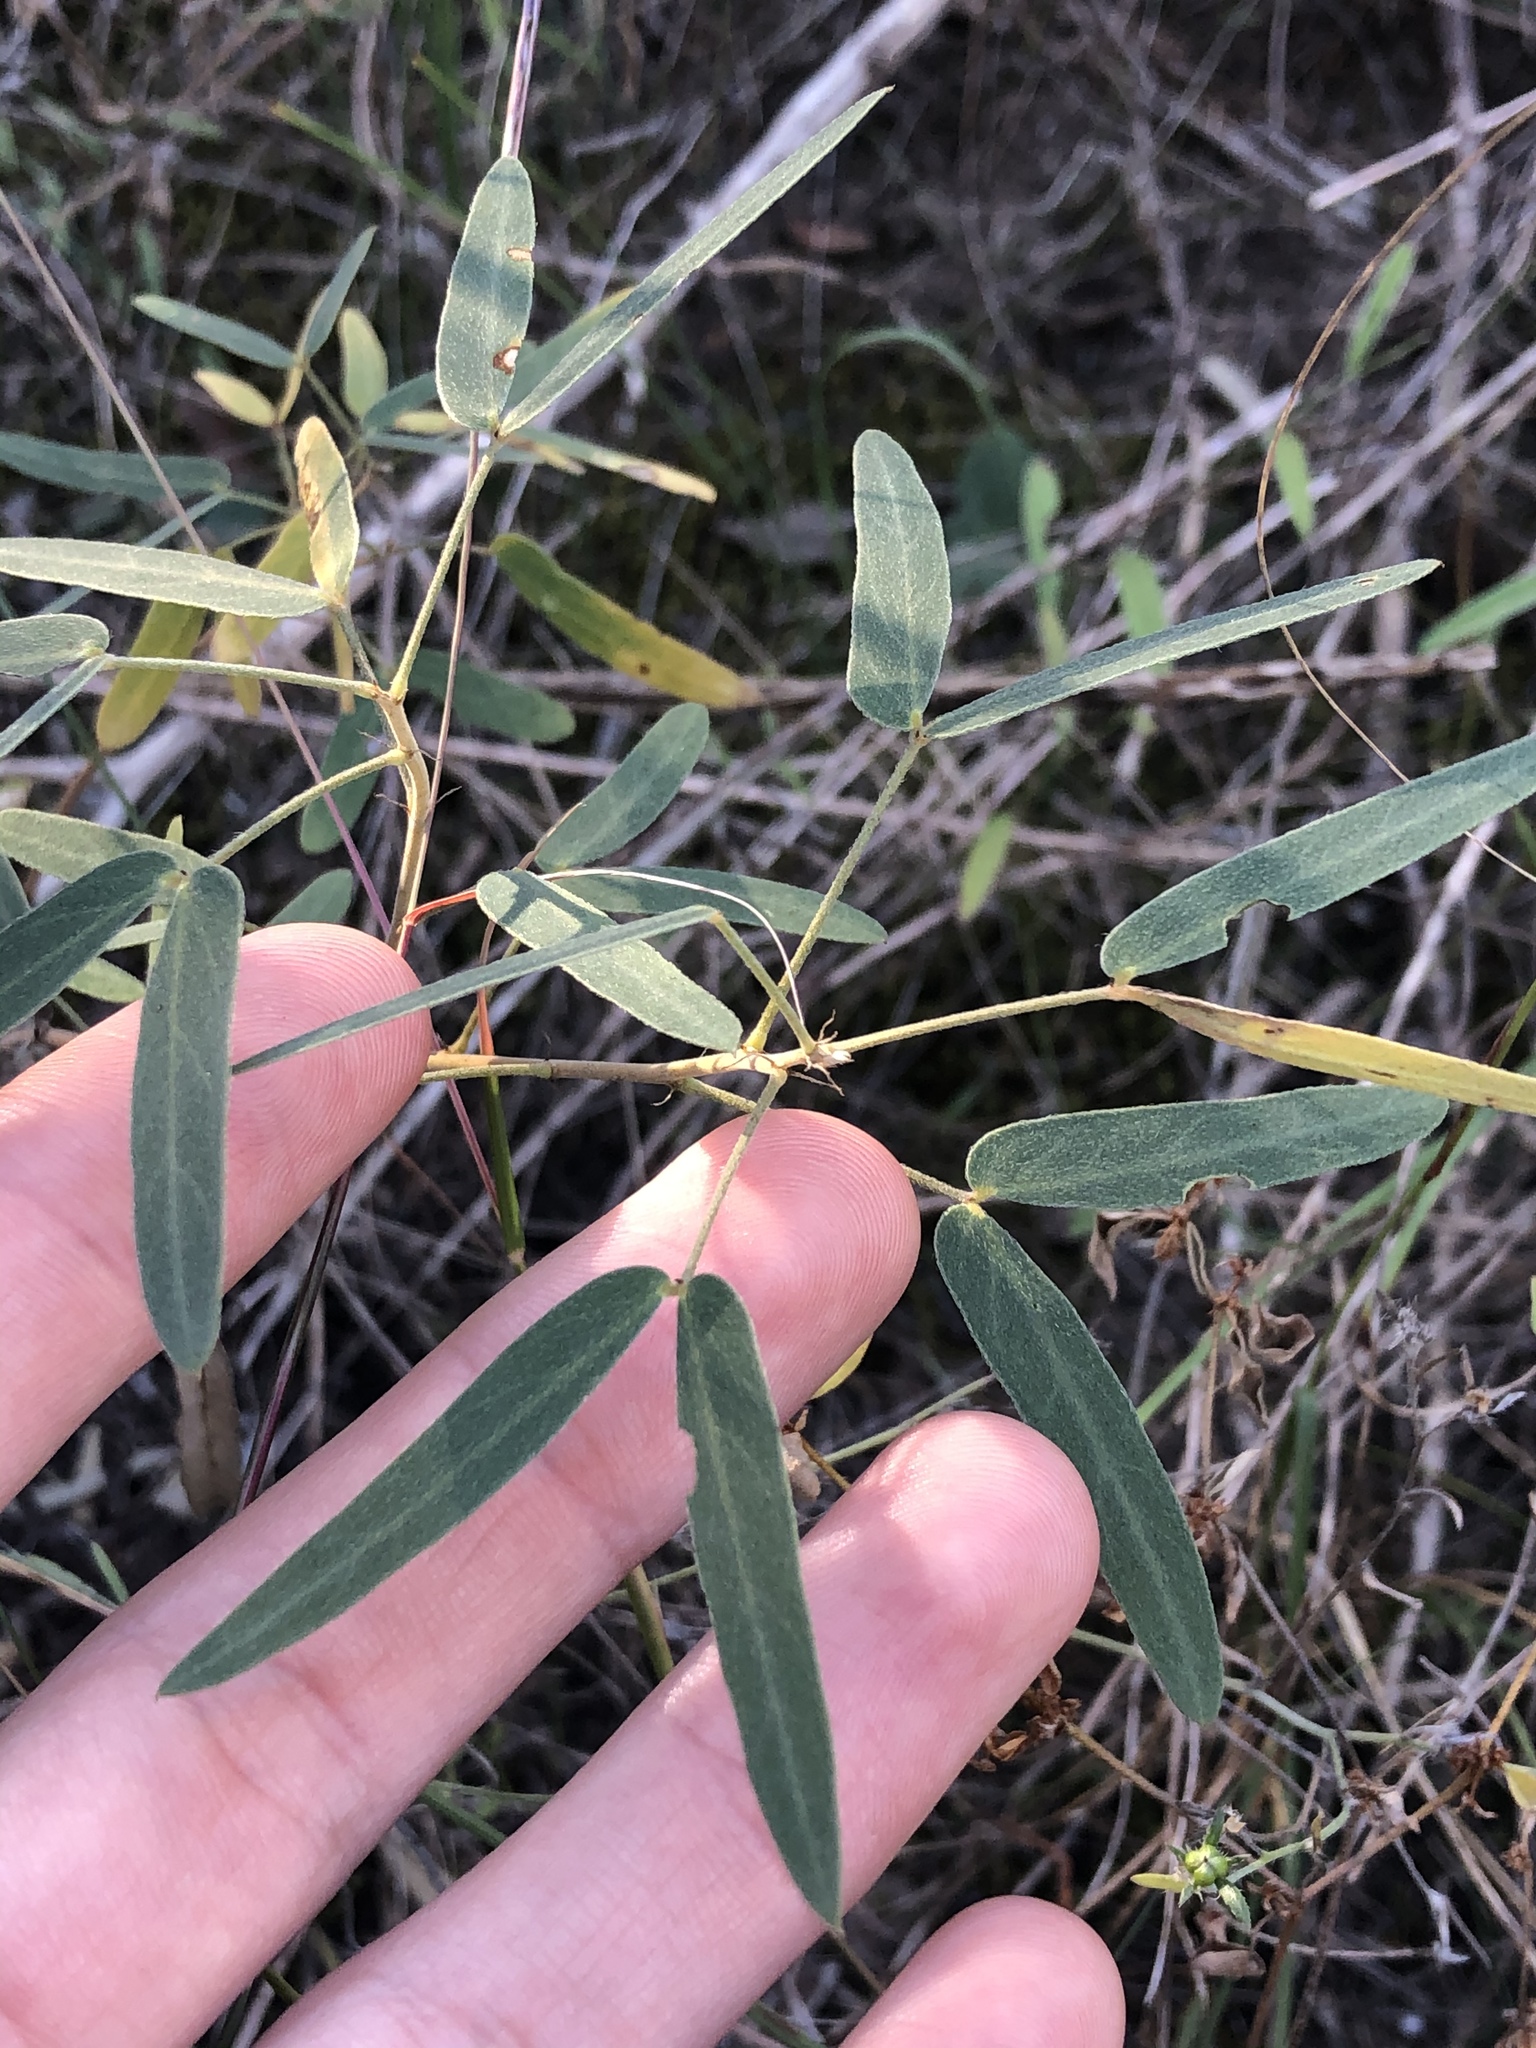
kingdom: Plantae
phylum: Tracheophyta
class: Magnoliopsida
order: Fabales
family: Fabaceae
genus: Senna
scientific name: Senna roemeriana
